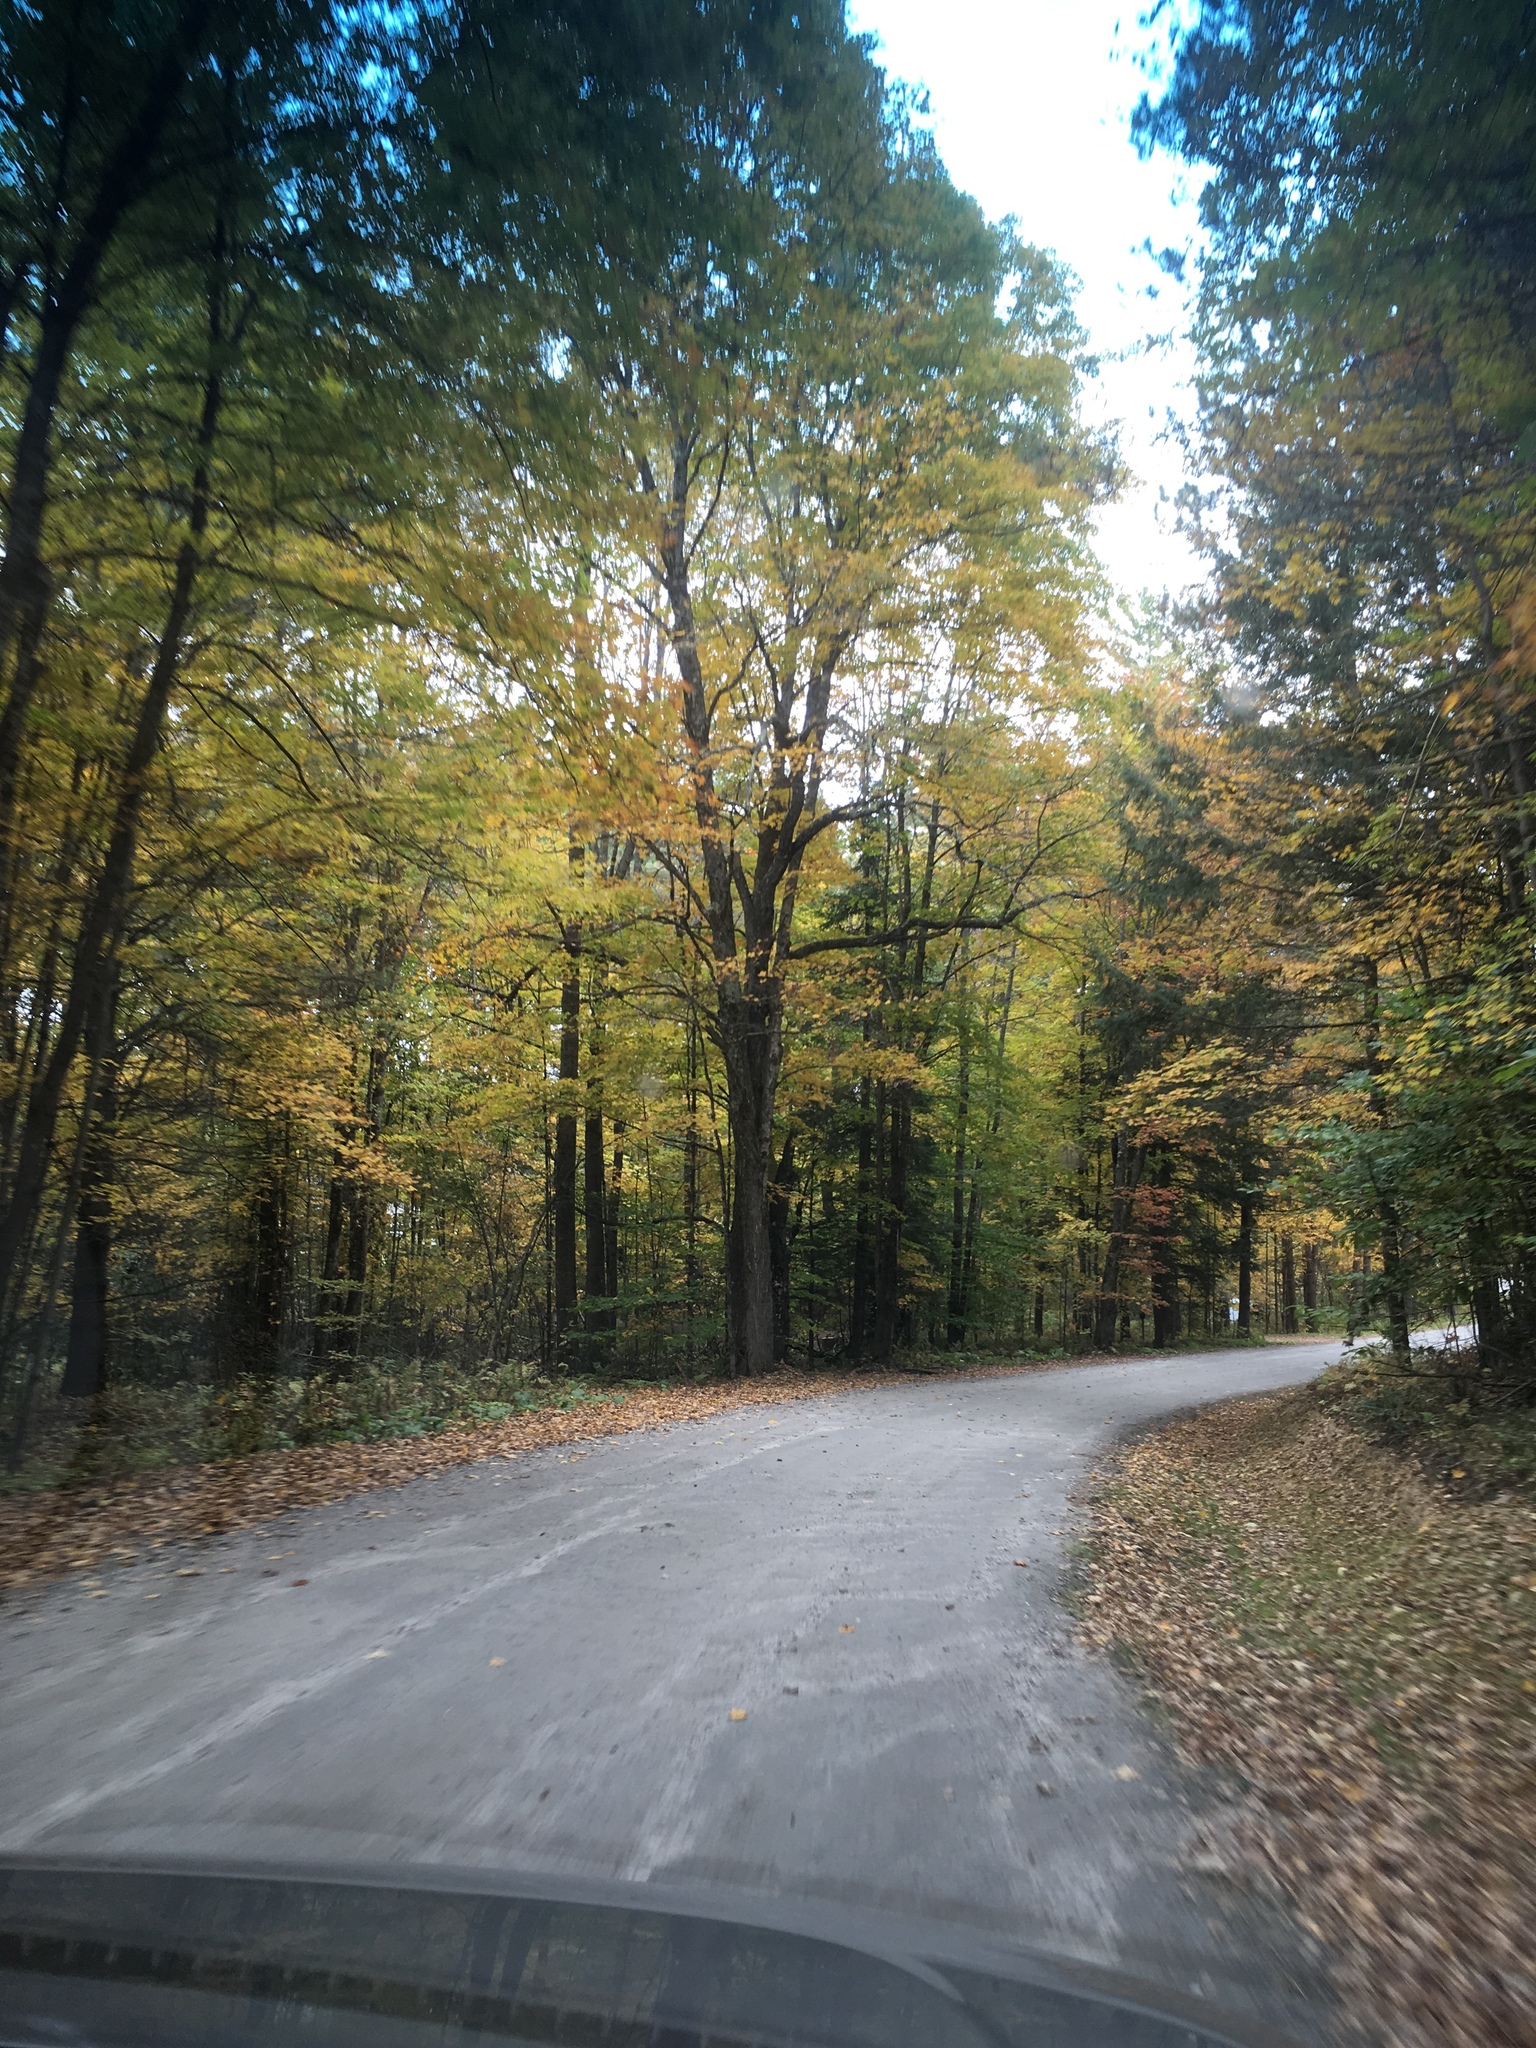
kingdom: Plantae
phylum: Tracheophyta
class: Magnoliopsida
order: Sapindales
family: Sapindaceae
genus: Acer
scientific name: Acer saccharum
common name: Sugar maple
